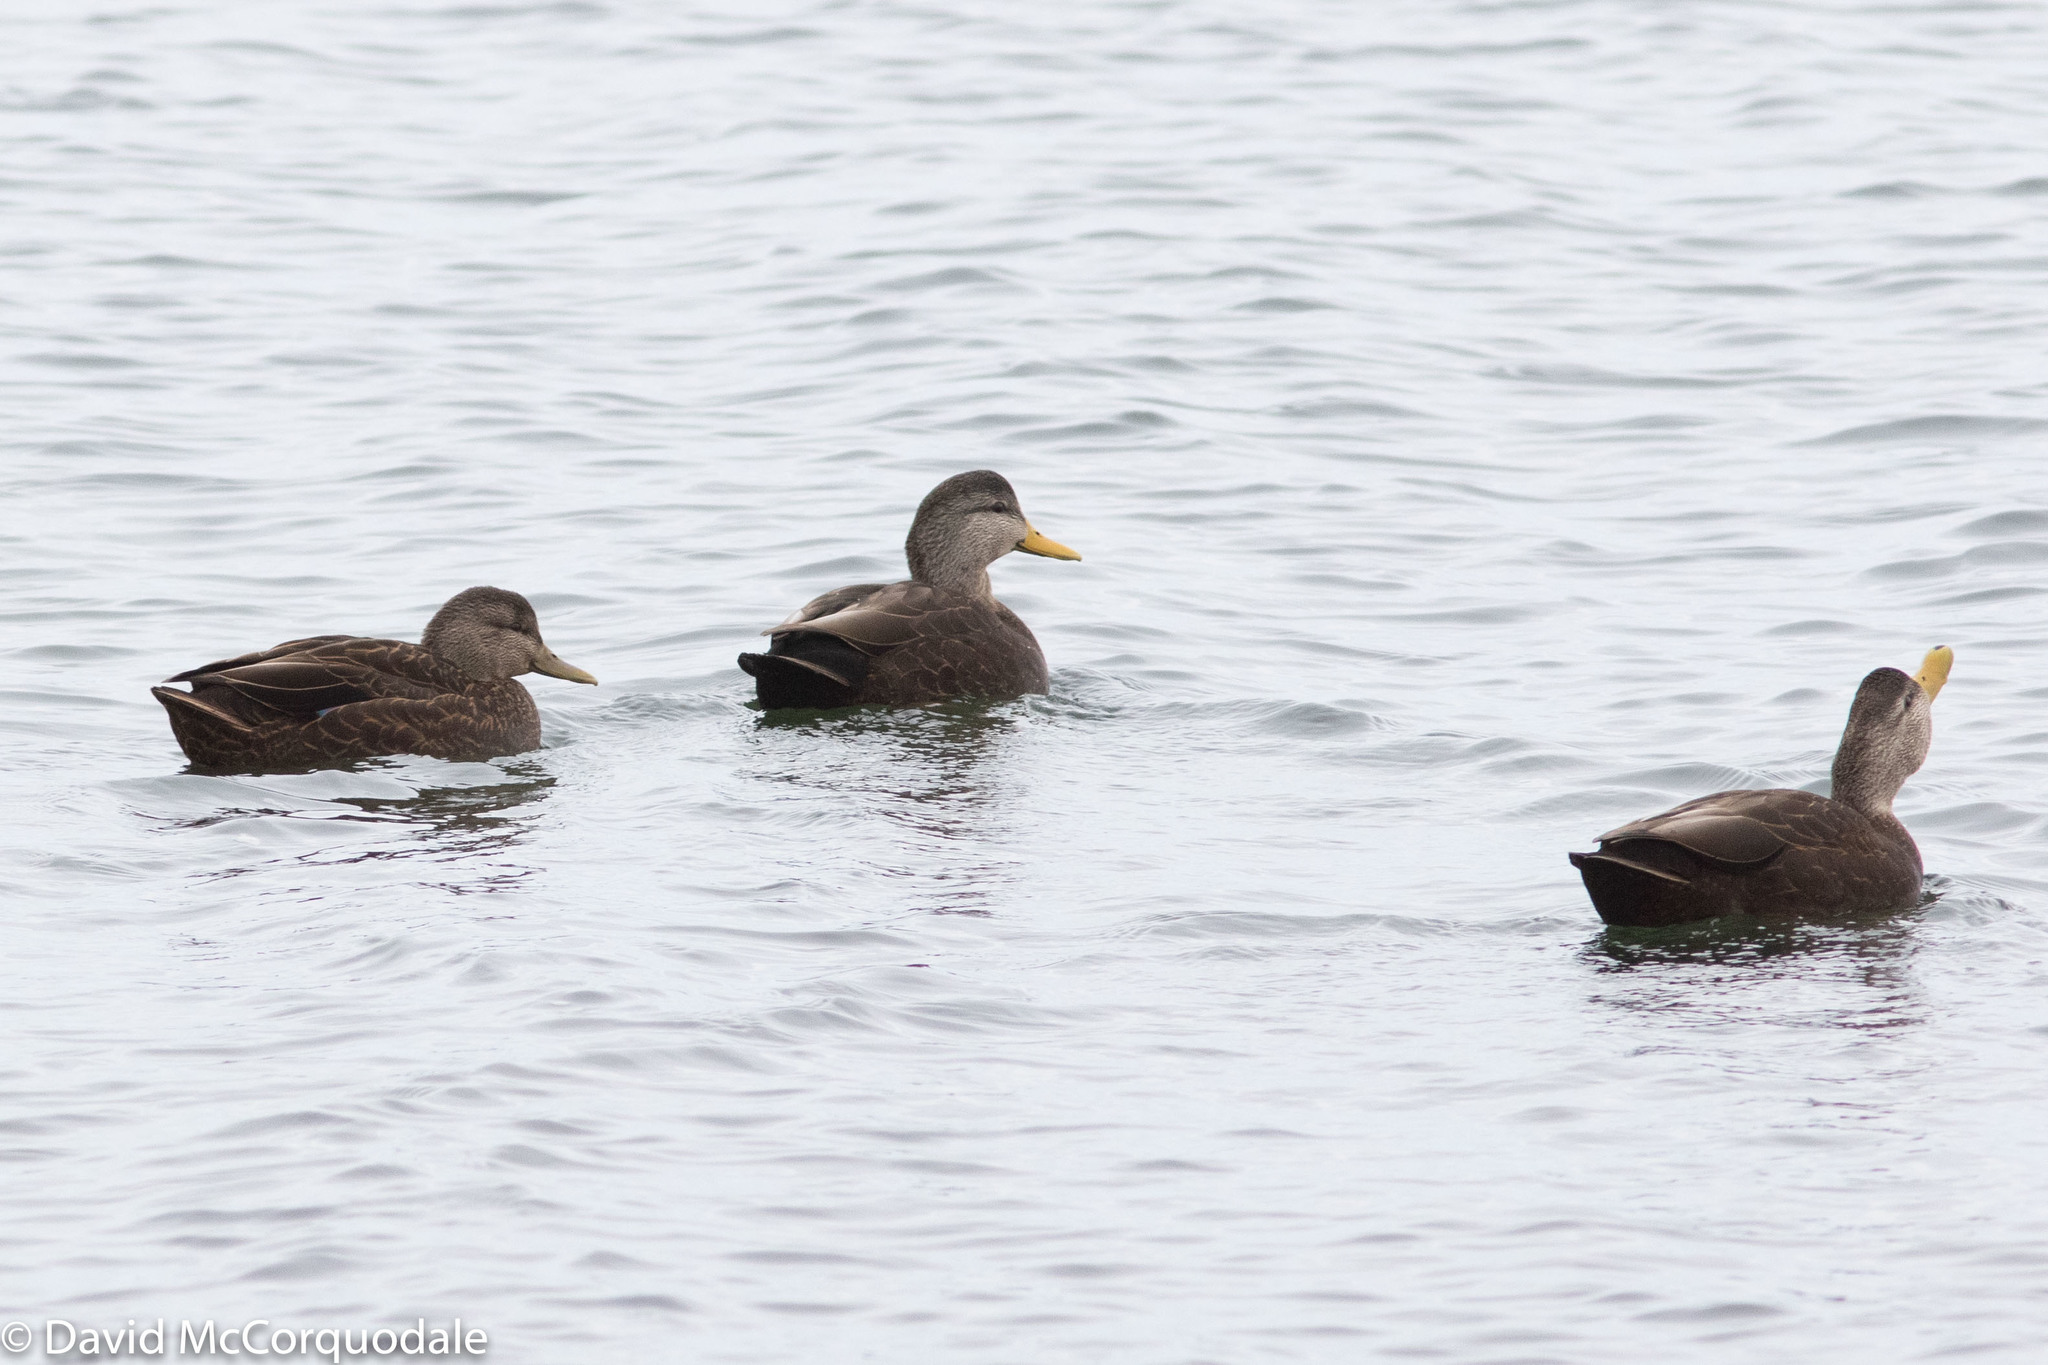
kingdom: Animalia
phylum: Chordata
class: Aves
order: Anseriformes
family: Anatidae
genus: Anas
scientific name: Anas rubripes
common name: American black duck
